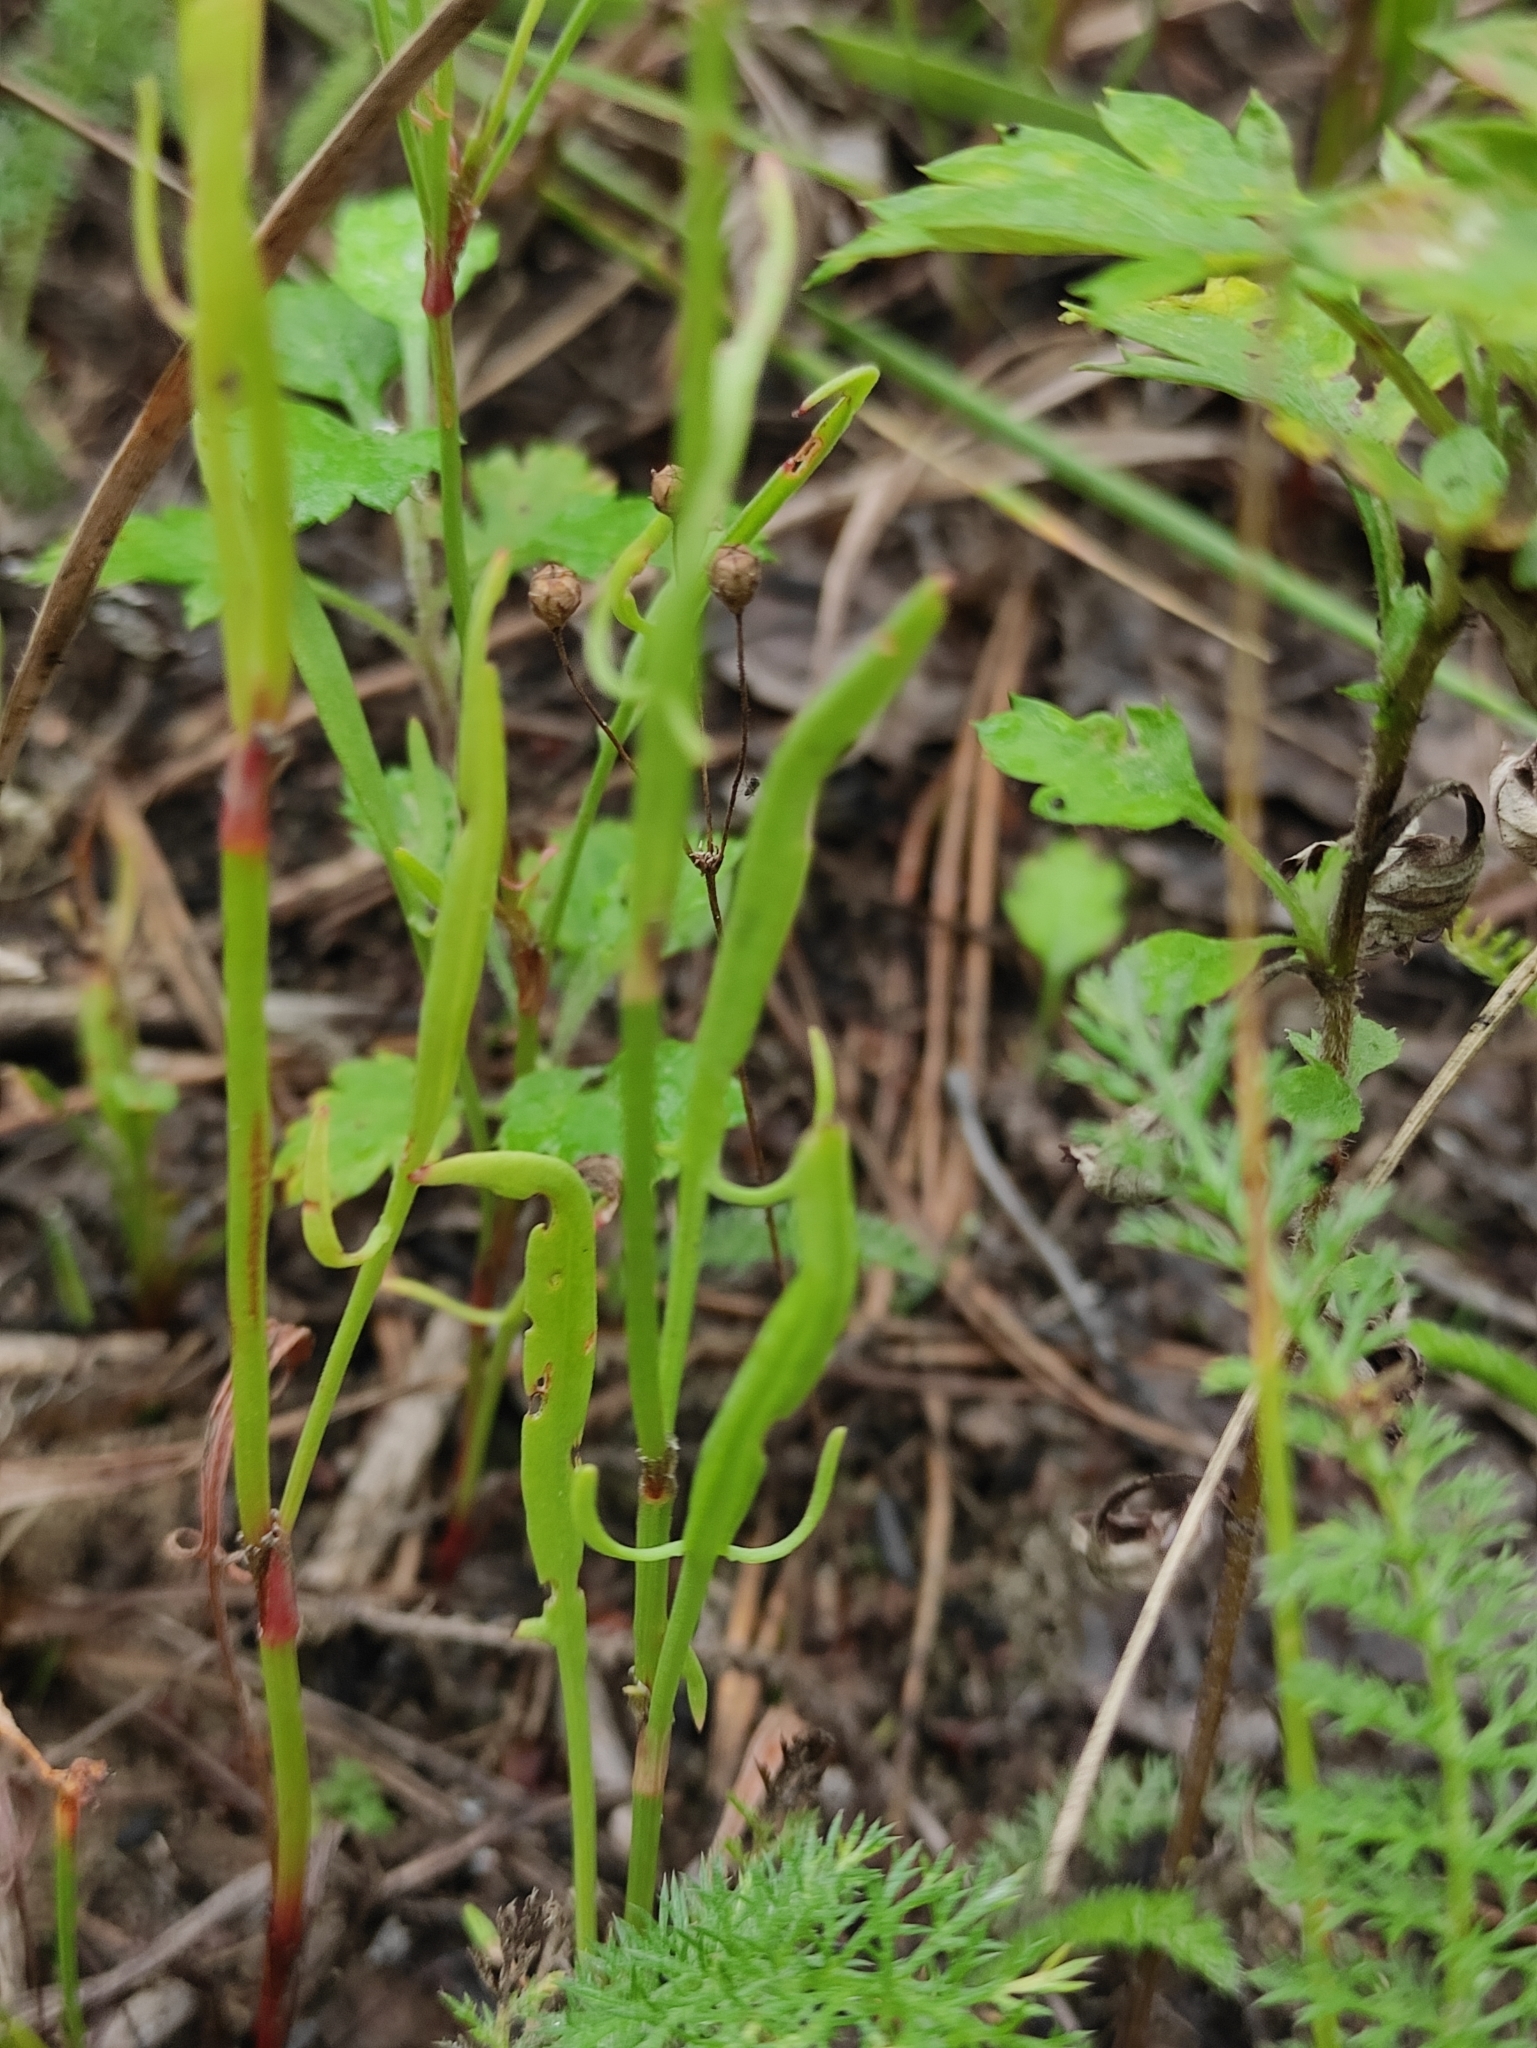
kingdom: Plantae
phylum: Tracheophyta
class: Magnoliopsida
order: Caryophyllales
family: Polygonaceae
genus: Rumex
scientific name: Rumex acetosella
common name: Common sheep sorrel
